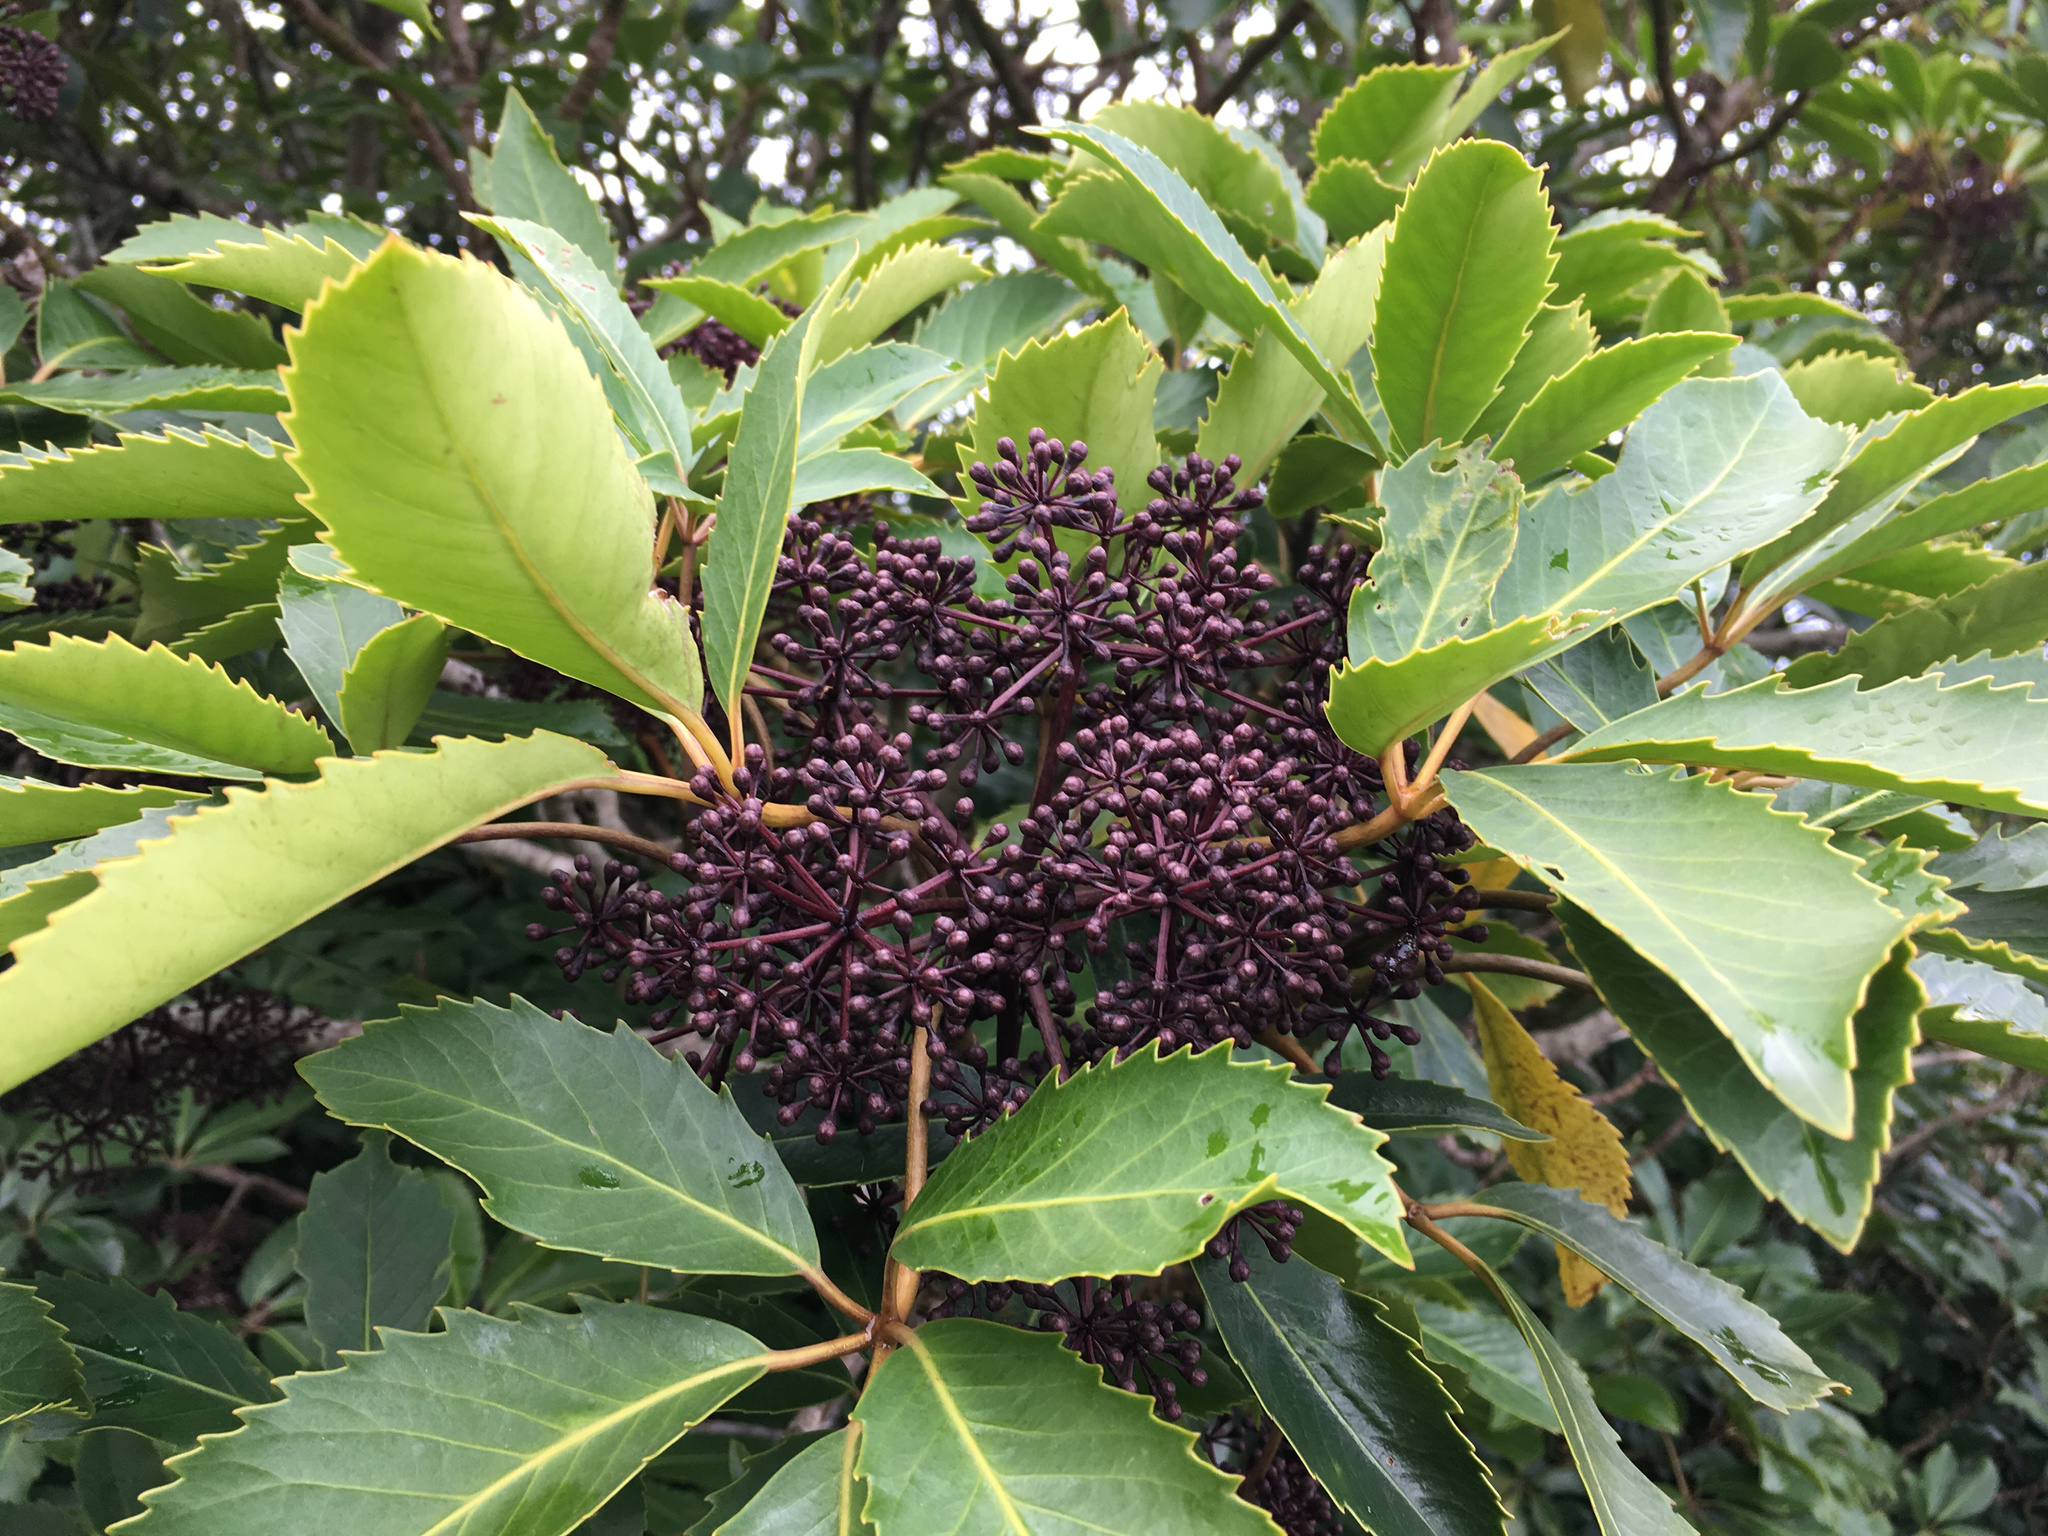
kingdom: Plantae
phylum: Tracheophyta
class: Magnoliopsida
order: Apiales
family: Araliaceae
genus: Neopanax
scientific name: Neopanax arboreus
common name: Five-fingers
